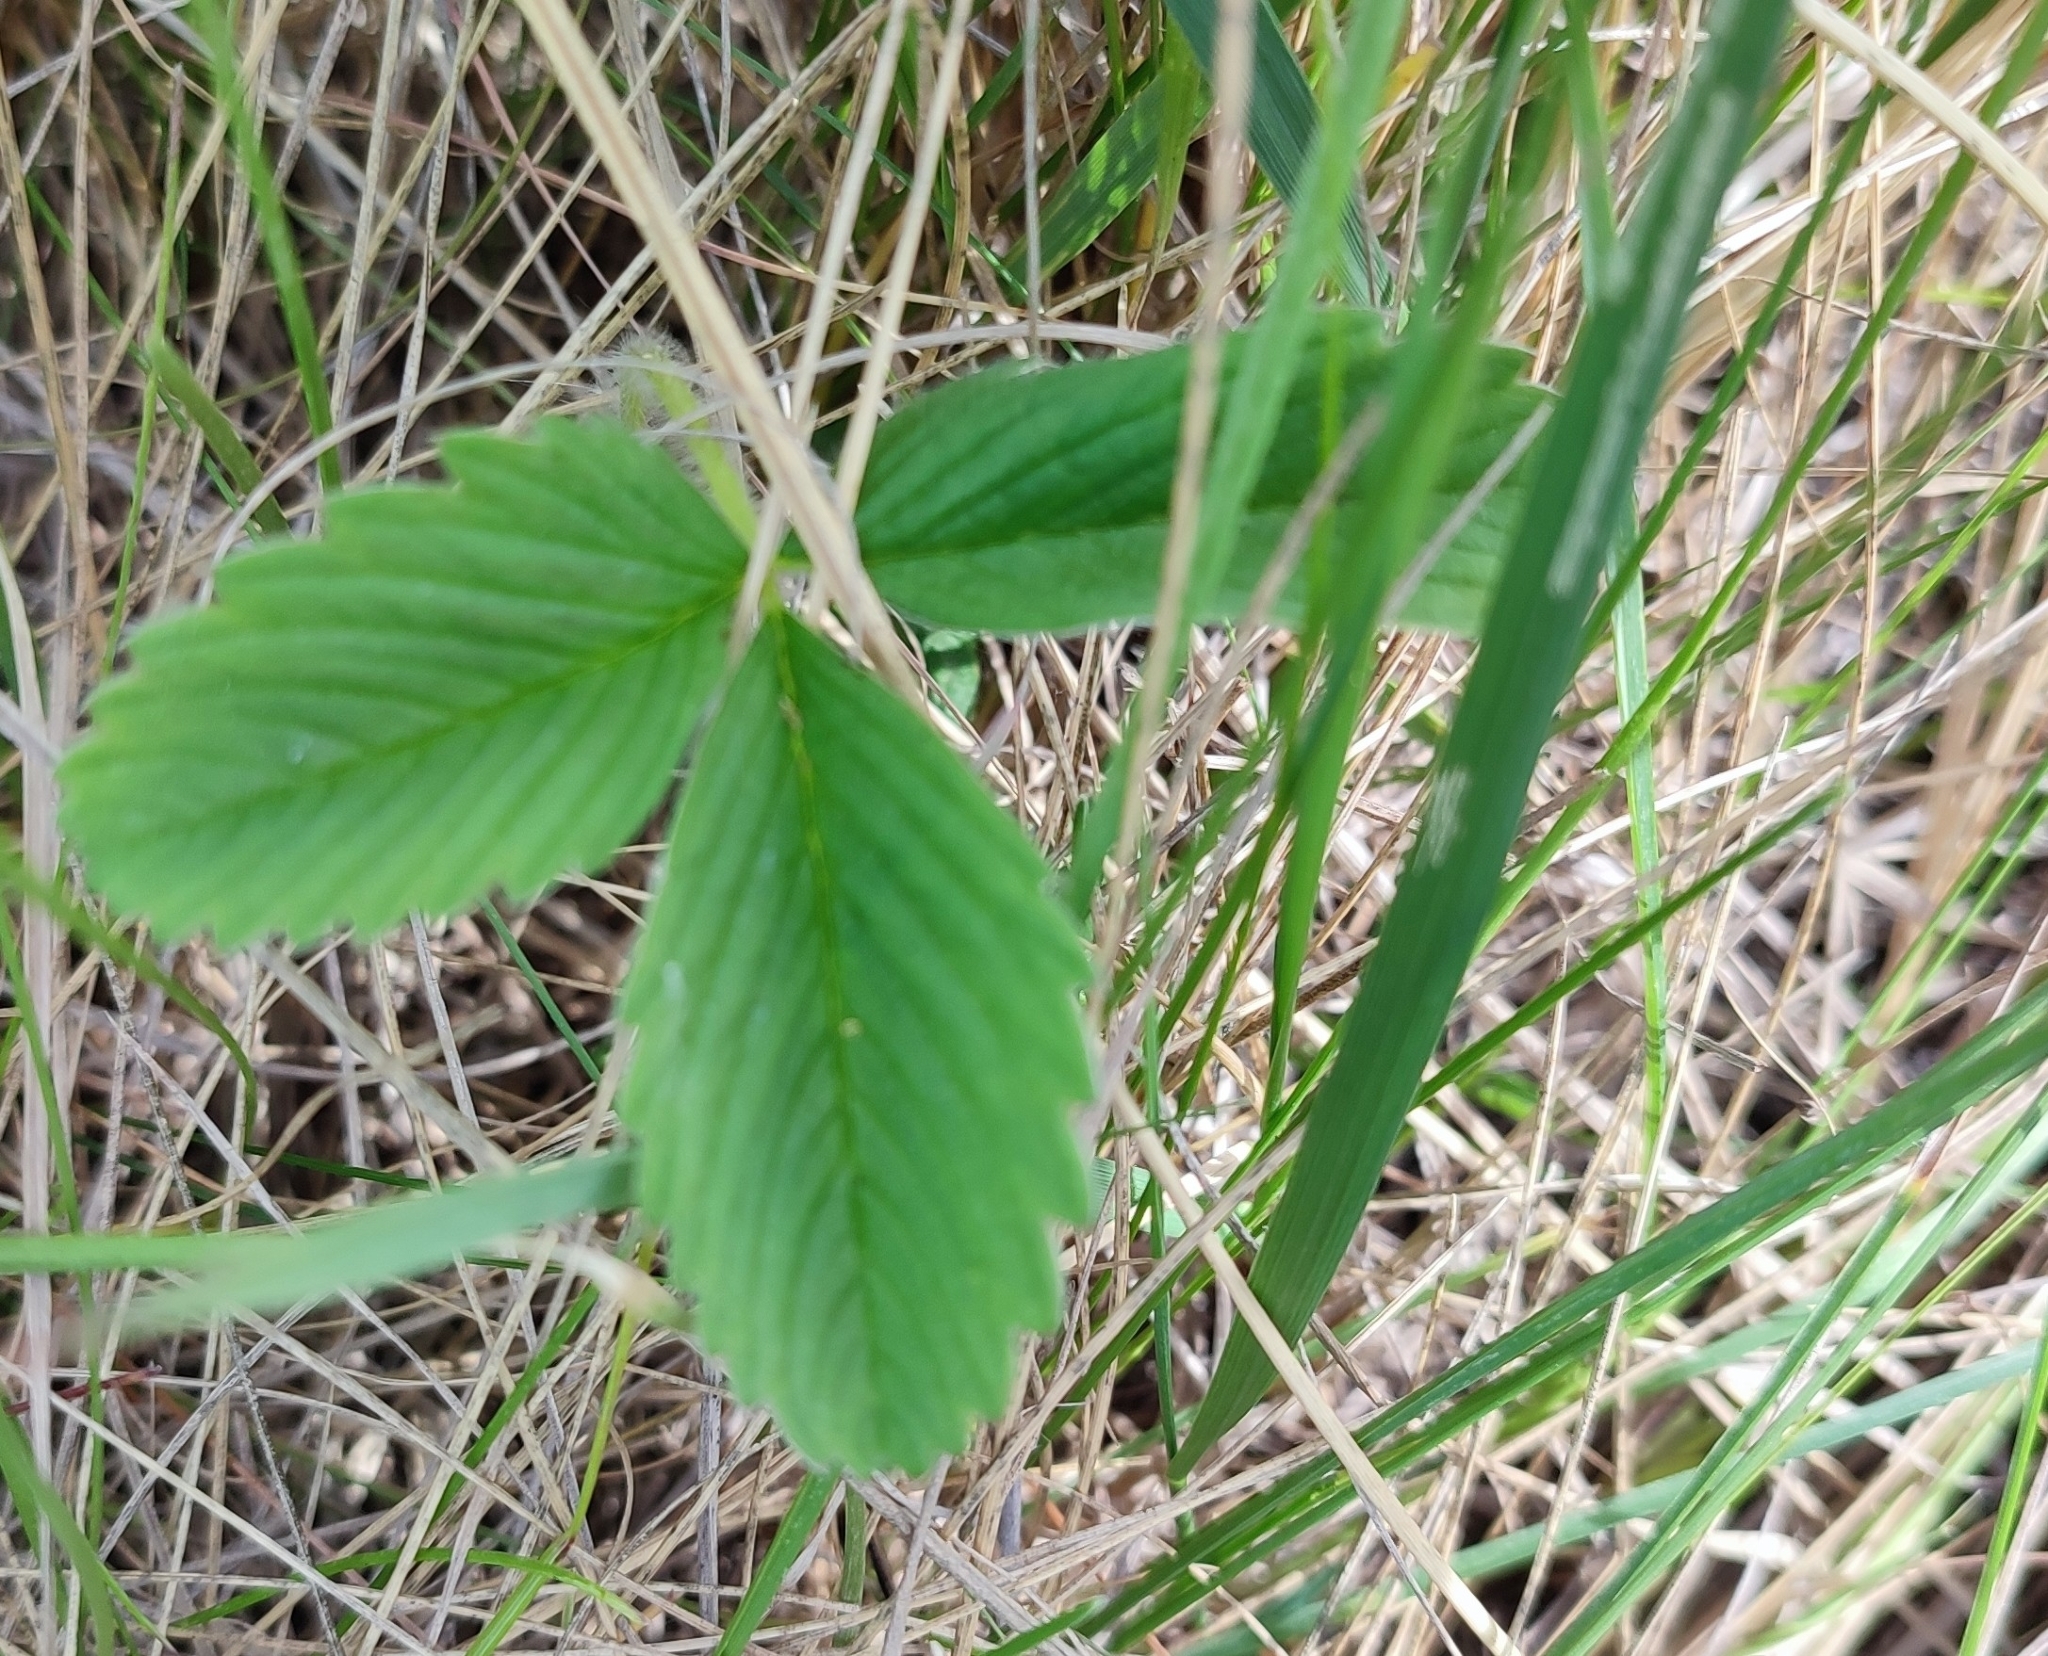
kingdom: Plantae
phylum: Tracheophyta
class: Magnoliopsida
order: Rosales
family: Rosaceae
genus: Fragaria
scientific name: Fragaria viridis
